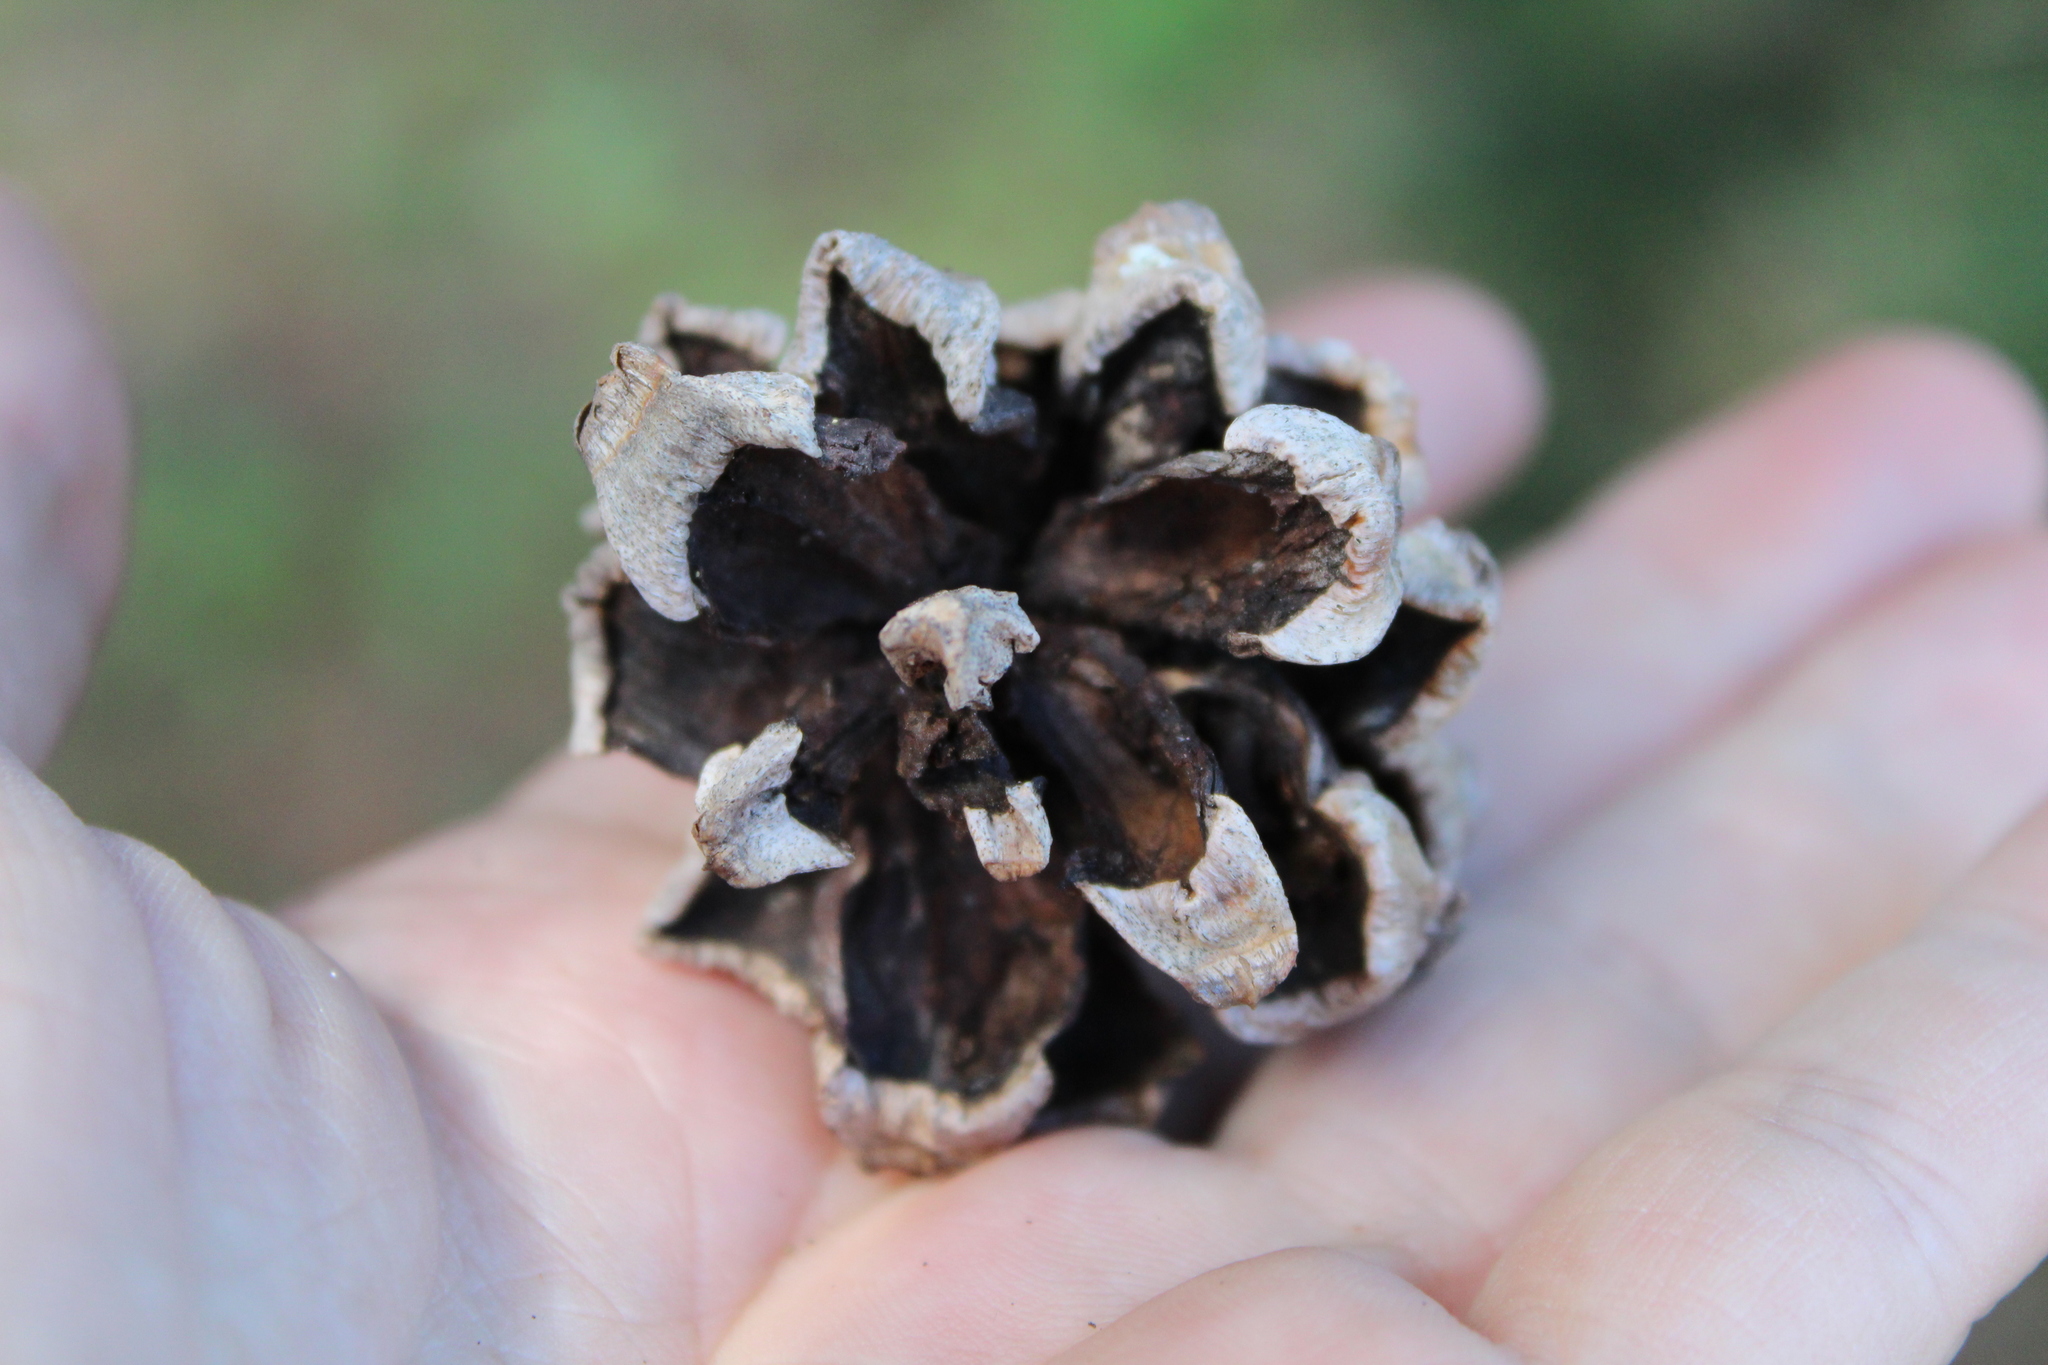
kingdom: Plantae
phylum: Tracheophyta
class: Pinopsida
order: Pinales
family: Pinaceae
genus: Pinus
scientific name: Pinus cembroides
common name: Mexican nut pine
